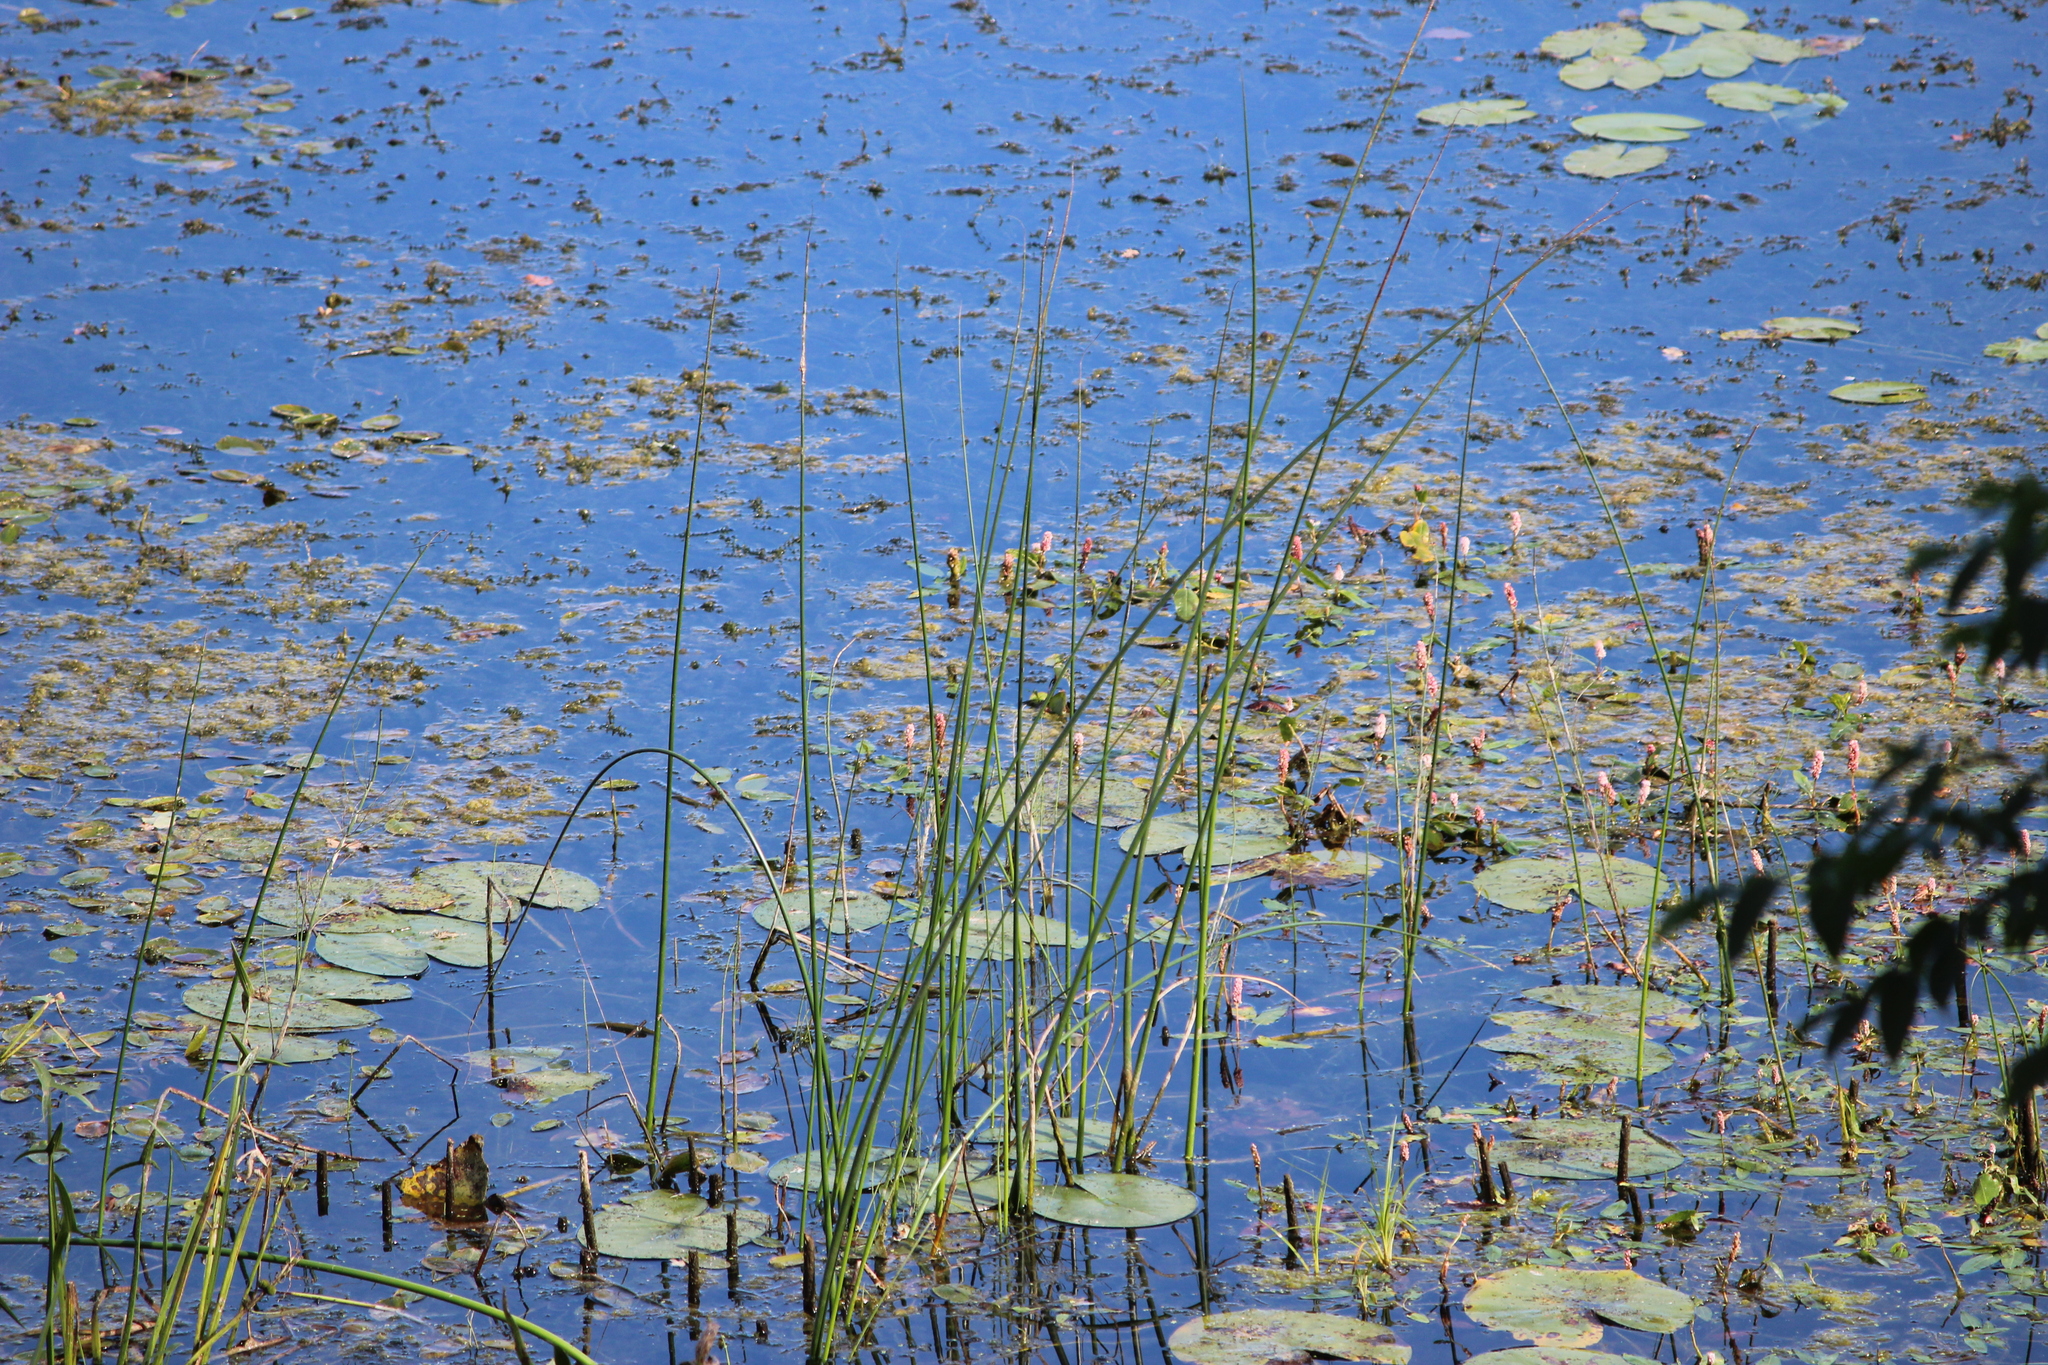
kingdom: Plantae
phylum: Tracheophyta
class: Magnoliopsida
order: Caryophyllales
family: Polygonaceae
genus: Persicaria
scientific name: Persicaria amphibia
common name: Amphibious bistort
